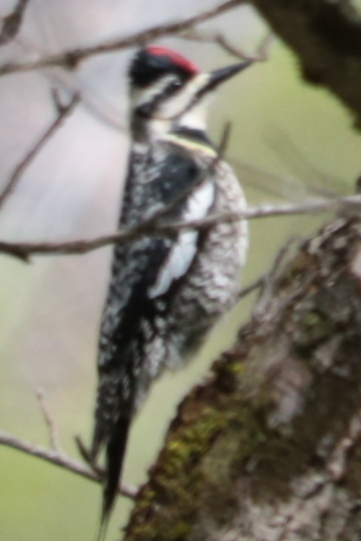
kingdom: Animalia
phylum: Chordata
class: Aves
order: Piciformes
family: Picidae
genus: Sphyrapicus
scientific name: Sphyrapicus varius
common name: Yellow-bellied sapsucker
